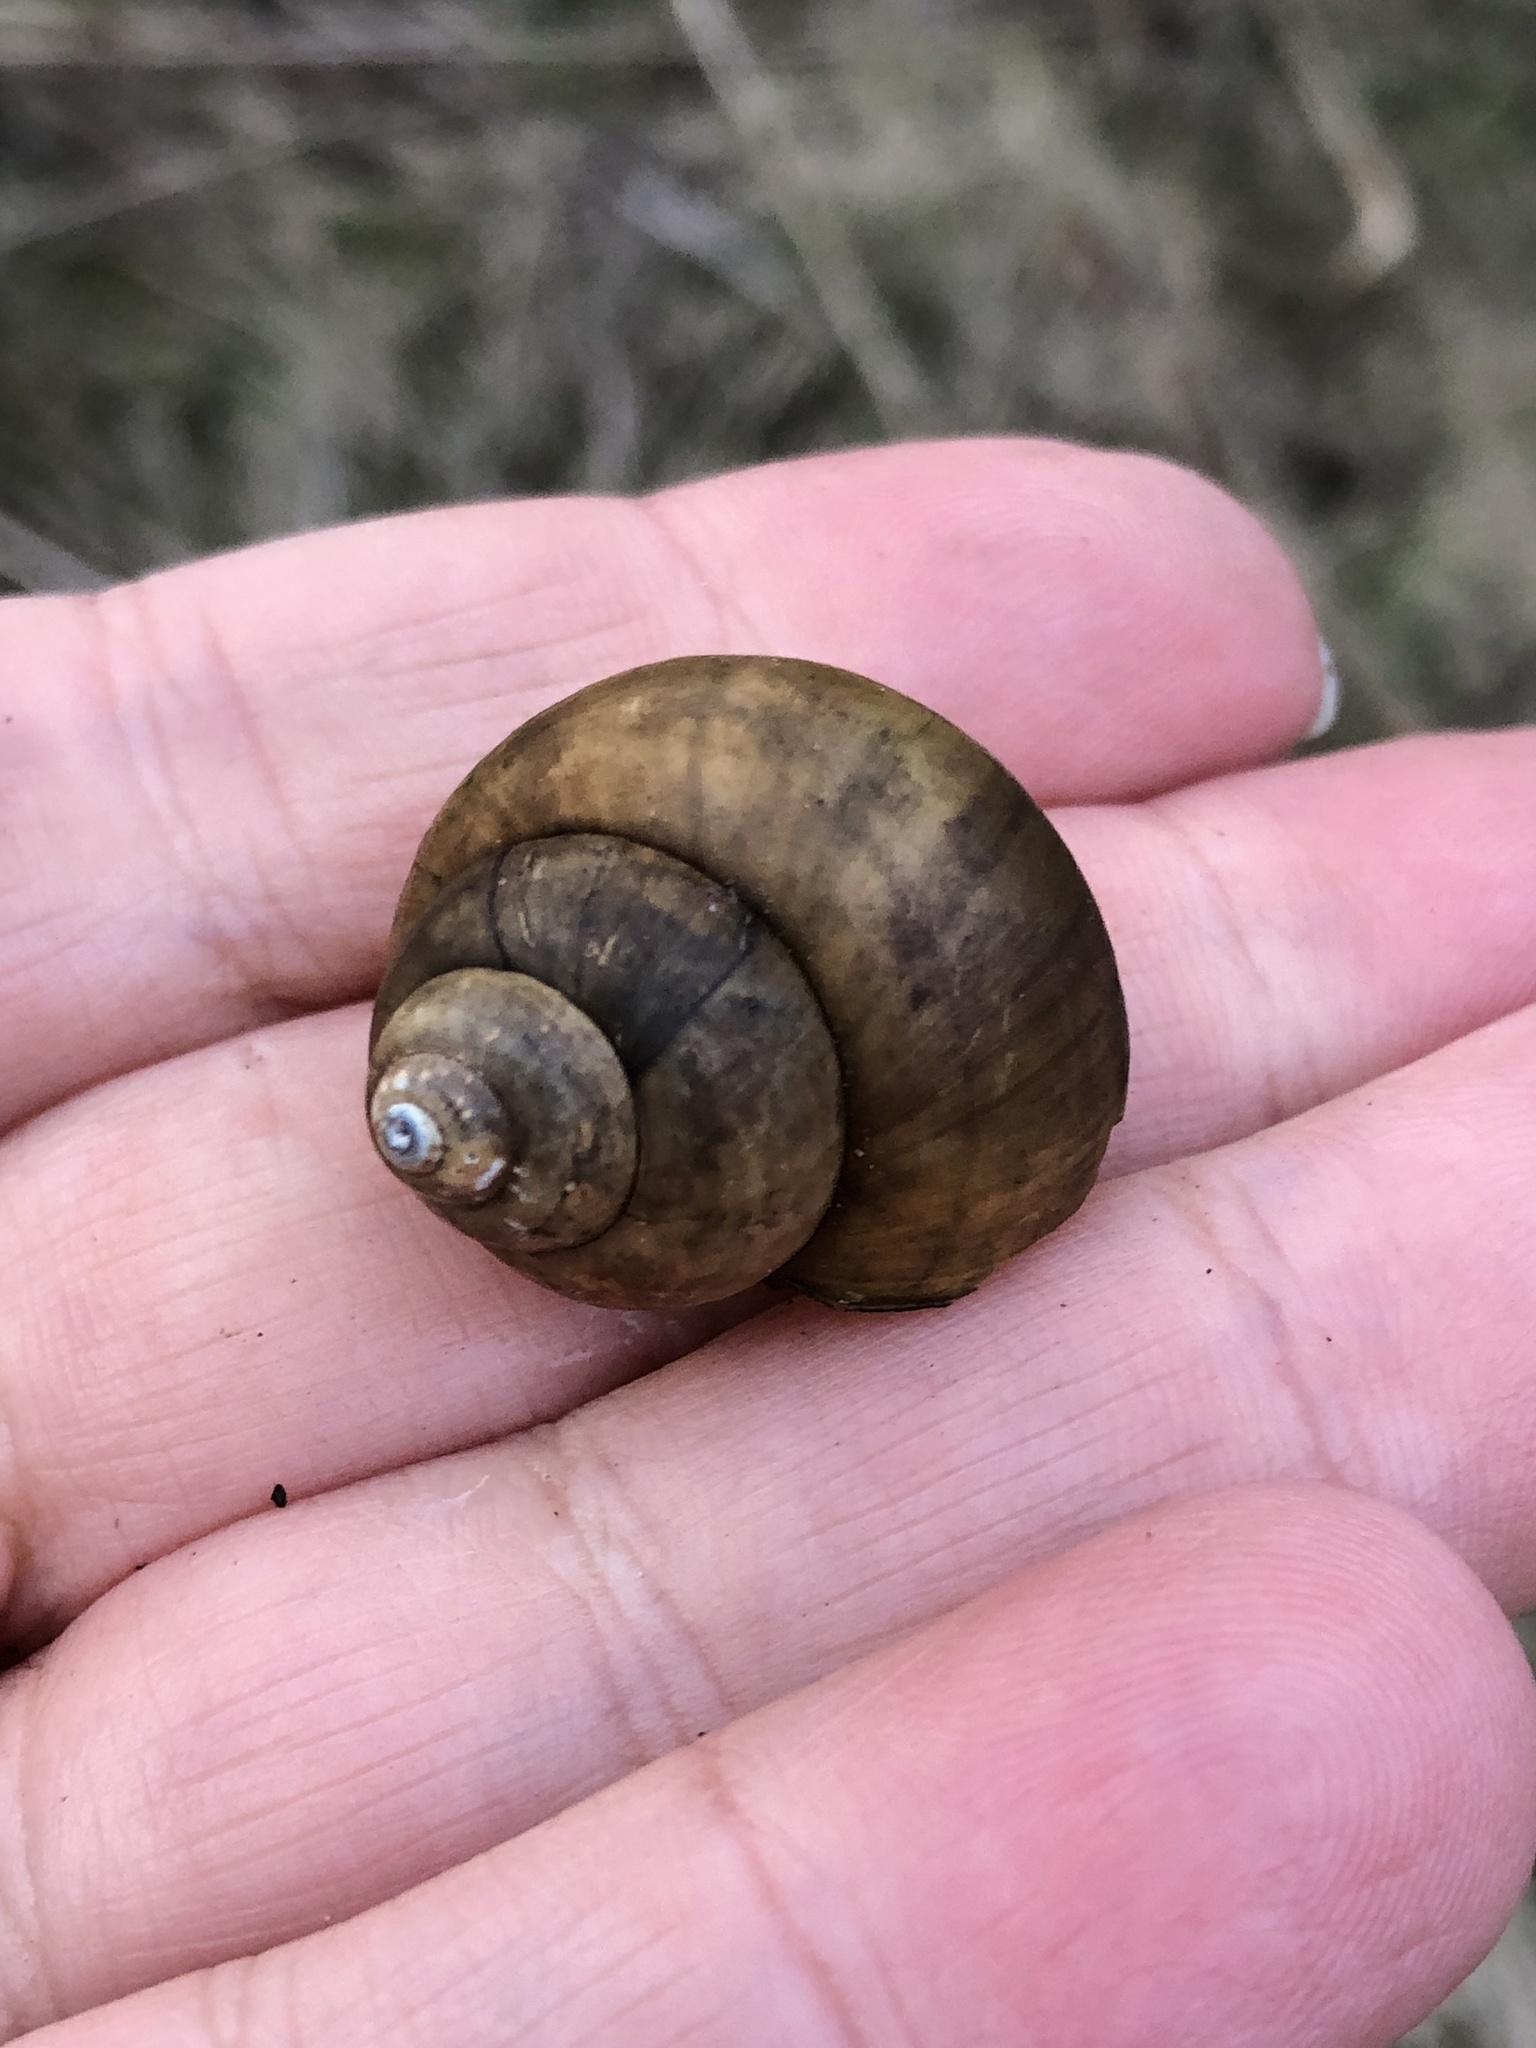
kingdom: Animalia
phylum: Mollusca
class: Gastropoda
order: Architaenioglossa
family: Viviparidae
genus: Cipangopaludina
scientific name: Cipangopaludina chinensis
